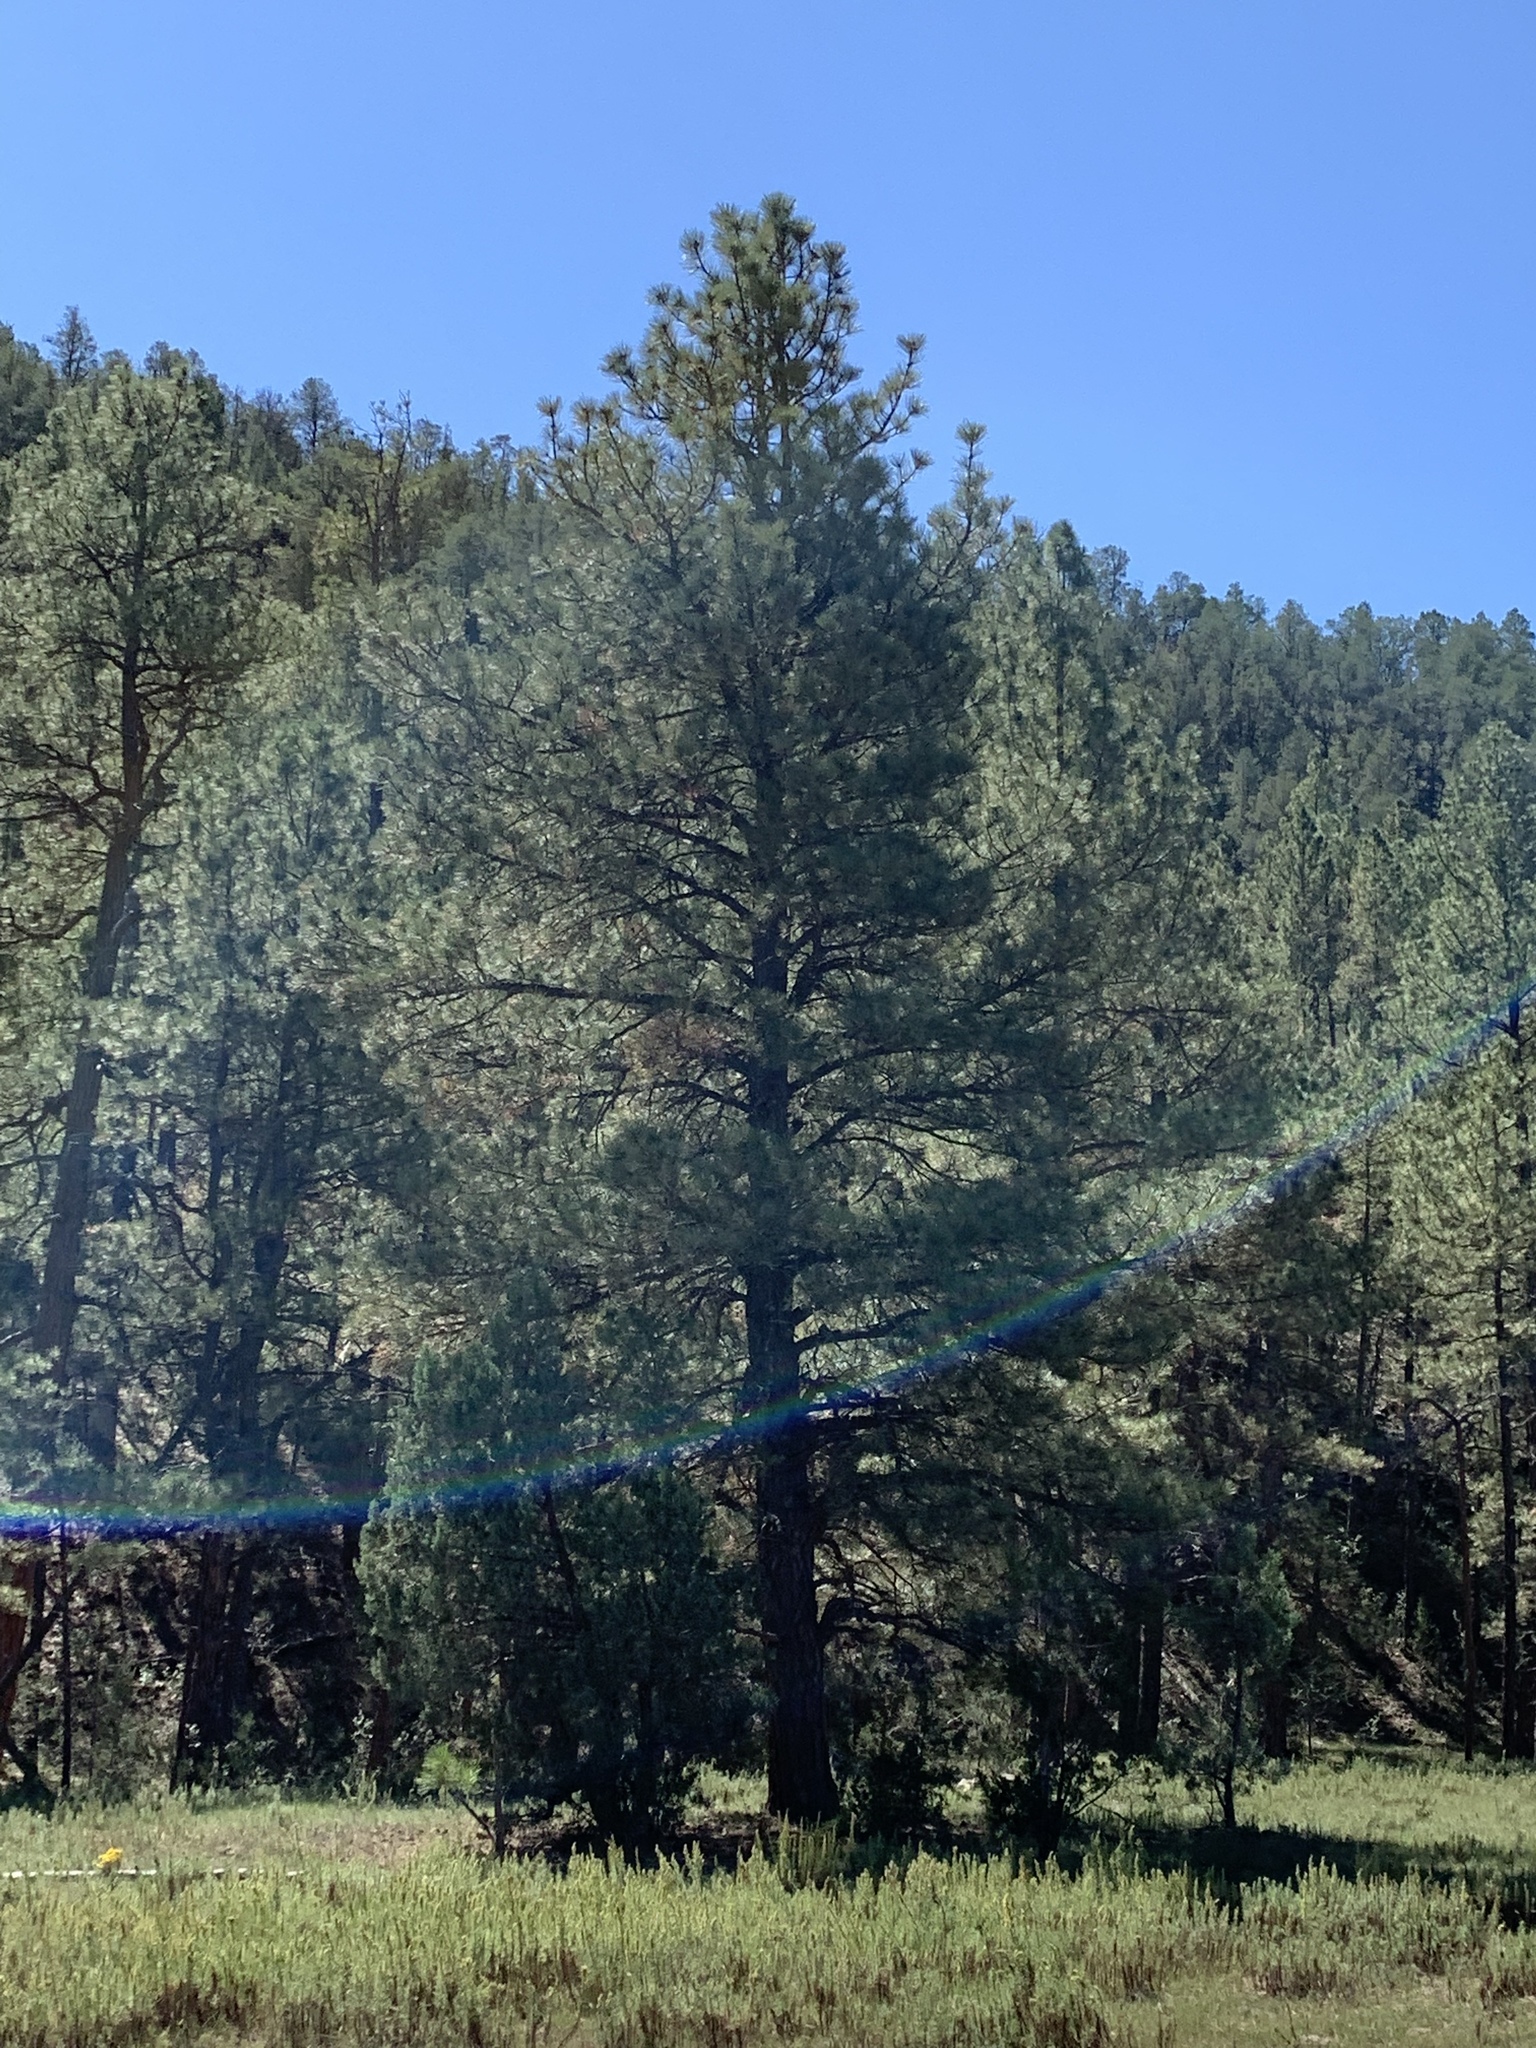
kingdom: Plantae
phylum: Tracheophyta
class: Pinopsida
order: Pinales
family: Pinaceae
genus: Pinus
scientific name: Pinus ponderosa
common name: Western yellow-pine
